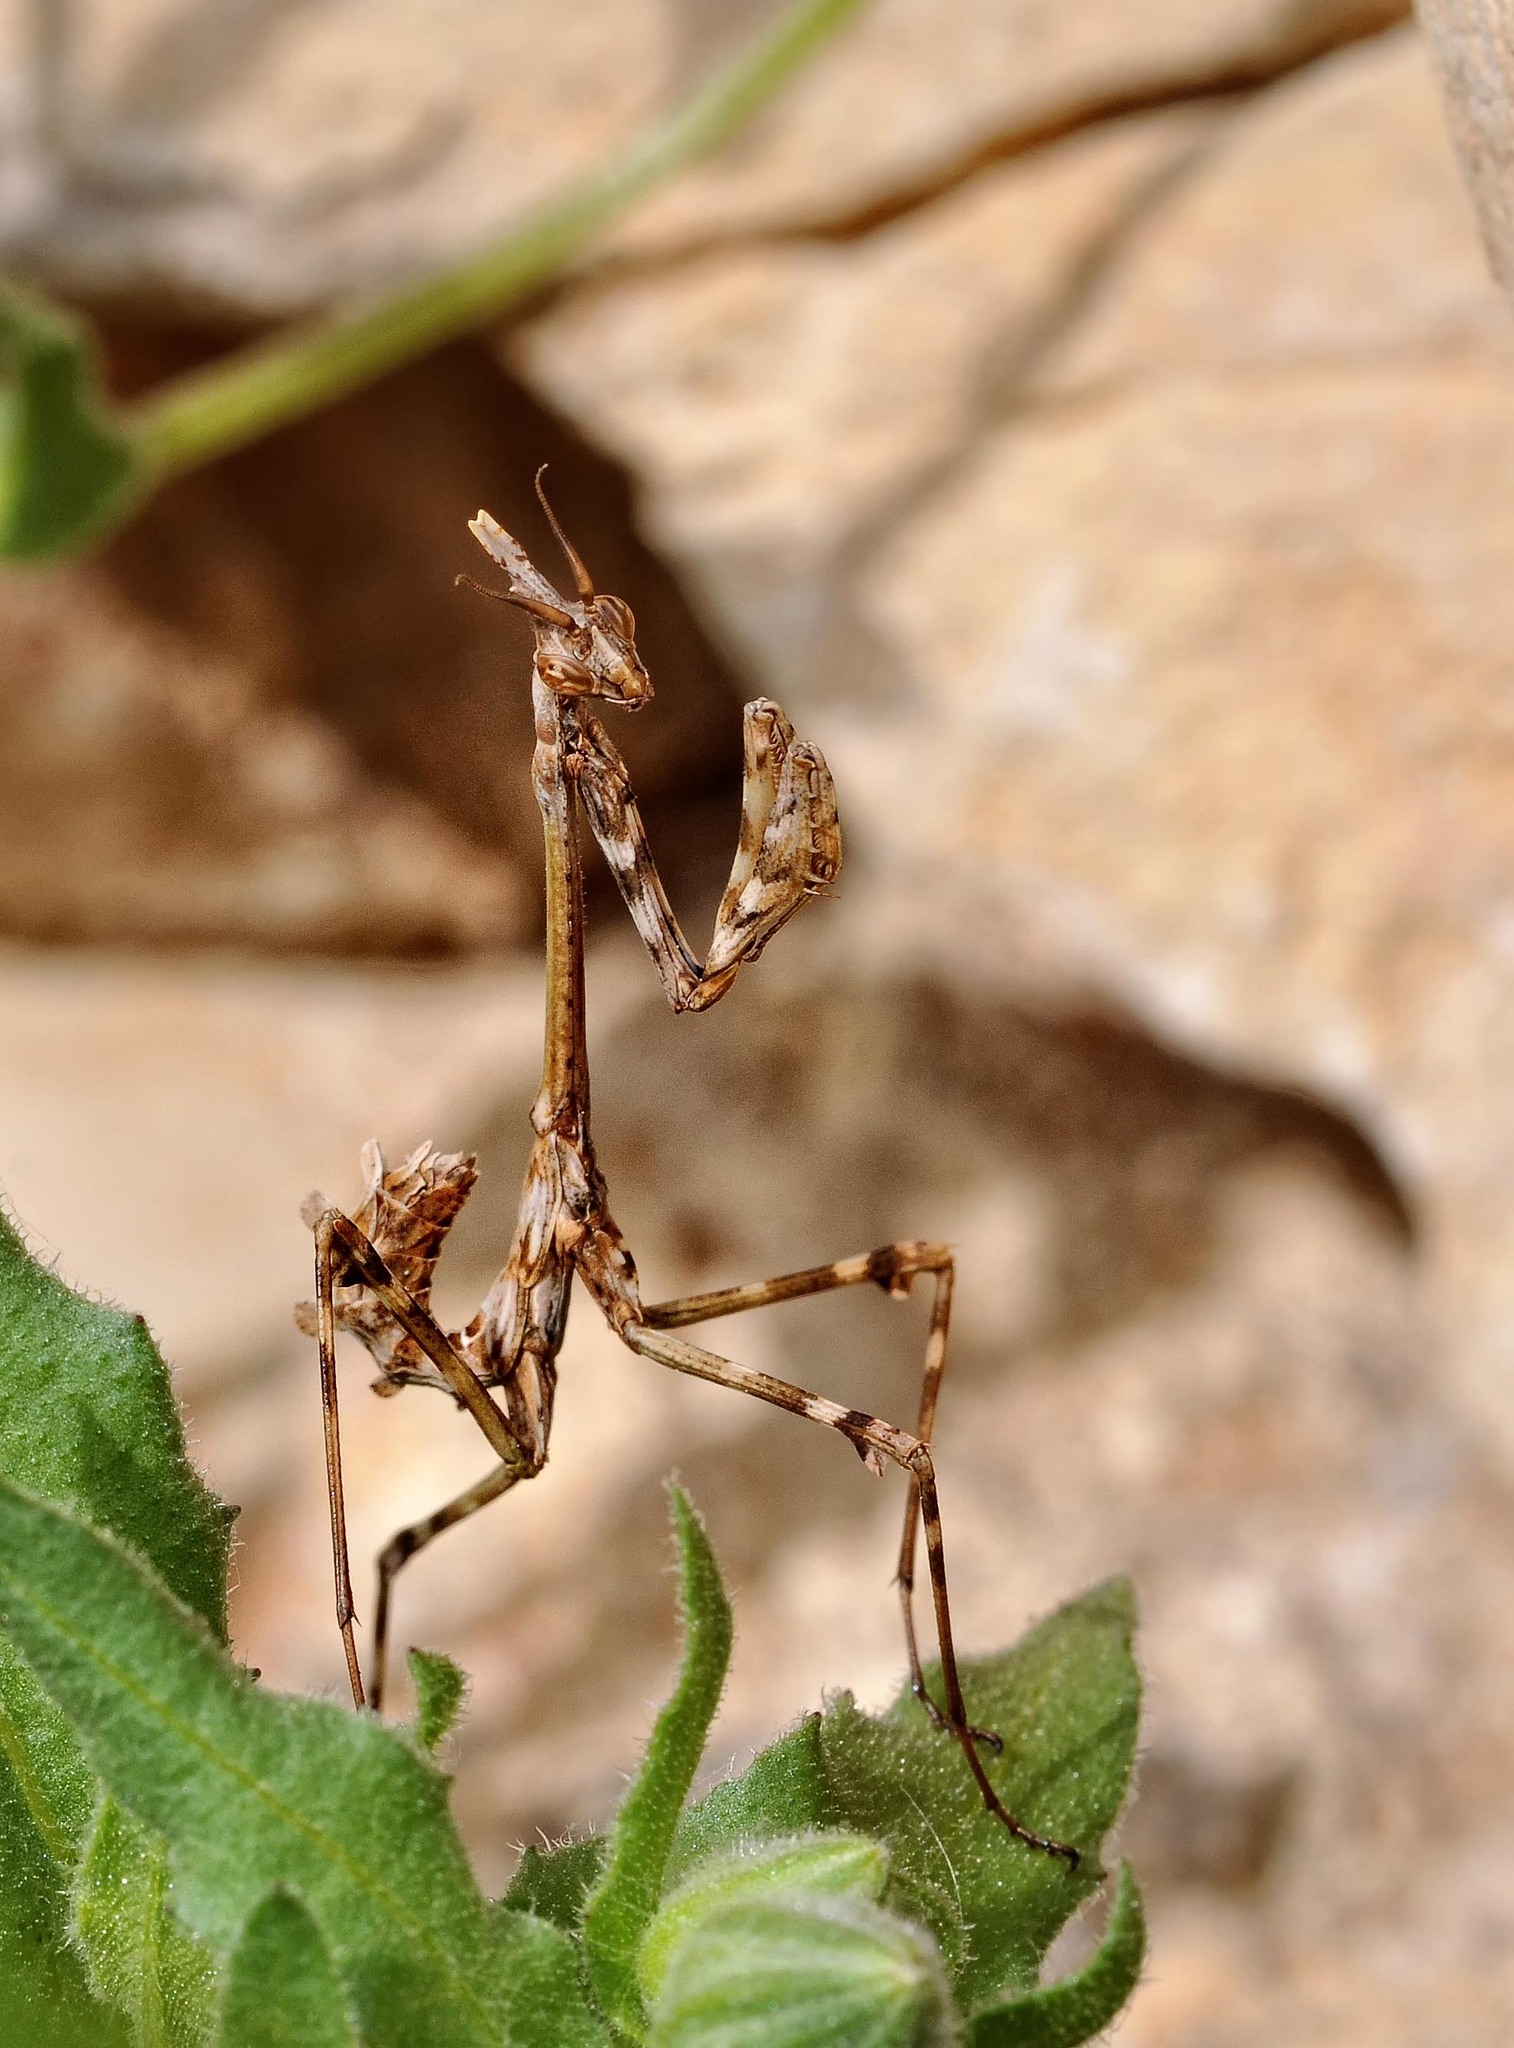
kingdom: Animalia
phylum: Arthropoda
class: Insecta
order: Mantodea
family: Empusidae
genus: Empusa
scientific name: Empusa pennata
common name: Conehead mantis
